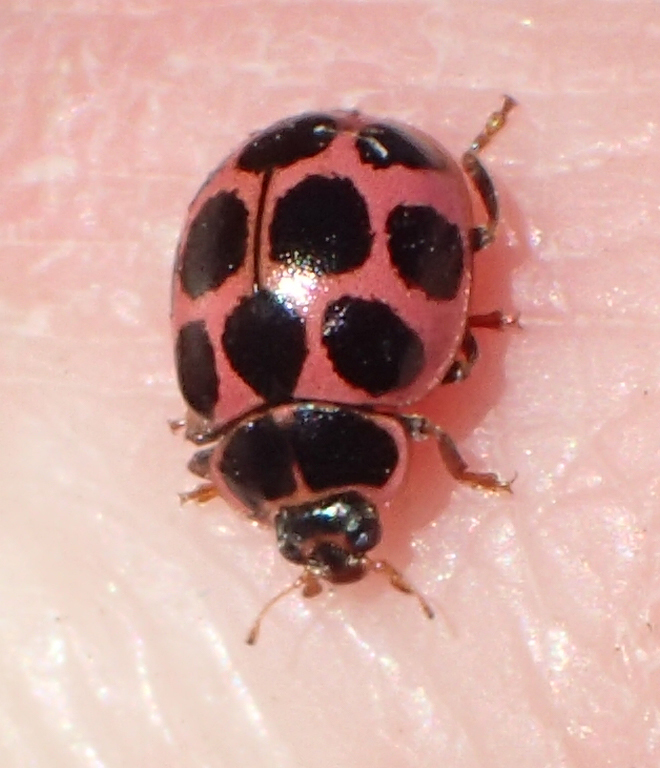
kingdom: Animalia
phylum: Arthropoda
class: Insecta
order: Coleoptera
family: Coccinellidae
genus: Calvia
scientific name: Calvia quatuordecimguttata
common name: Cream-spot ladybird
